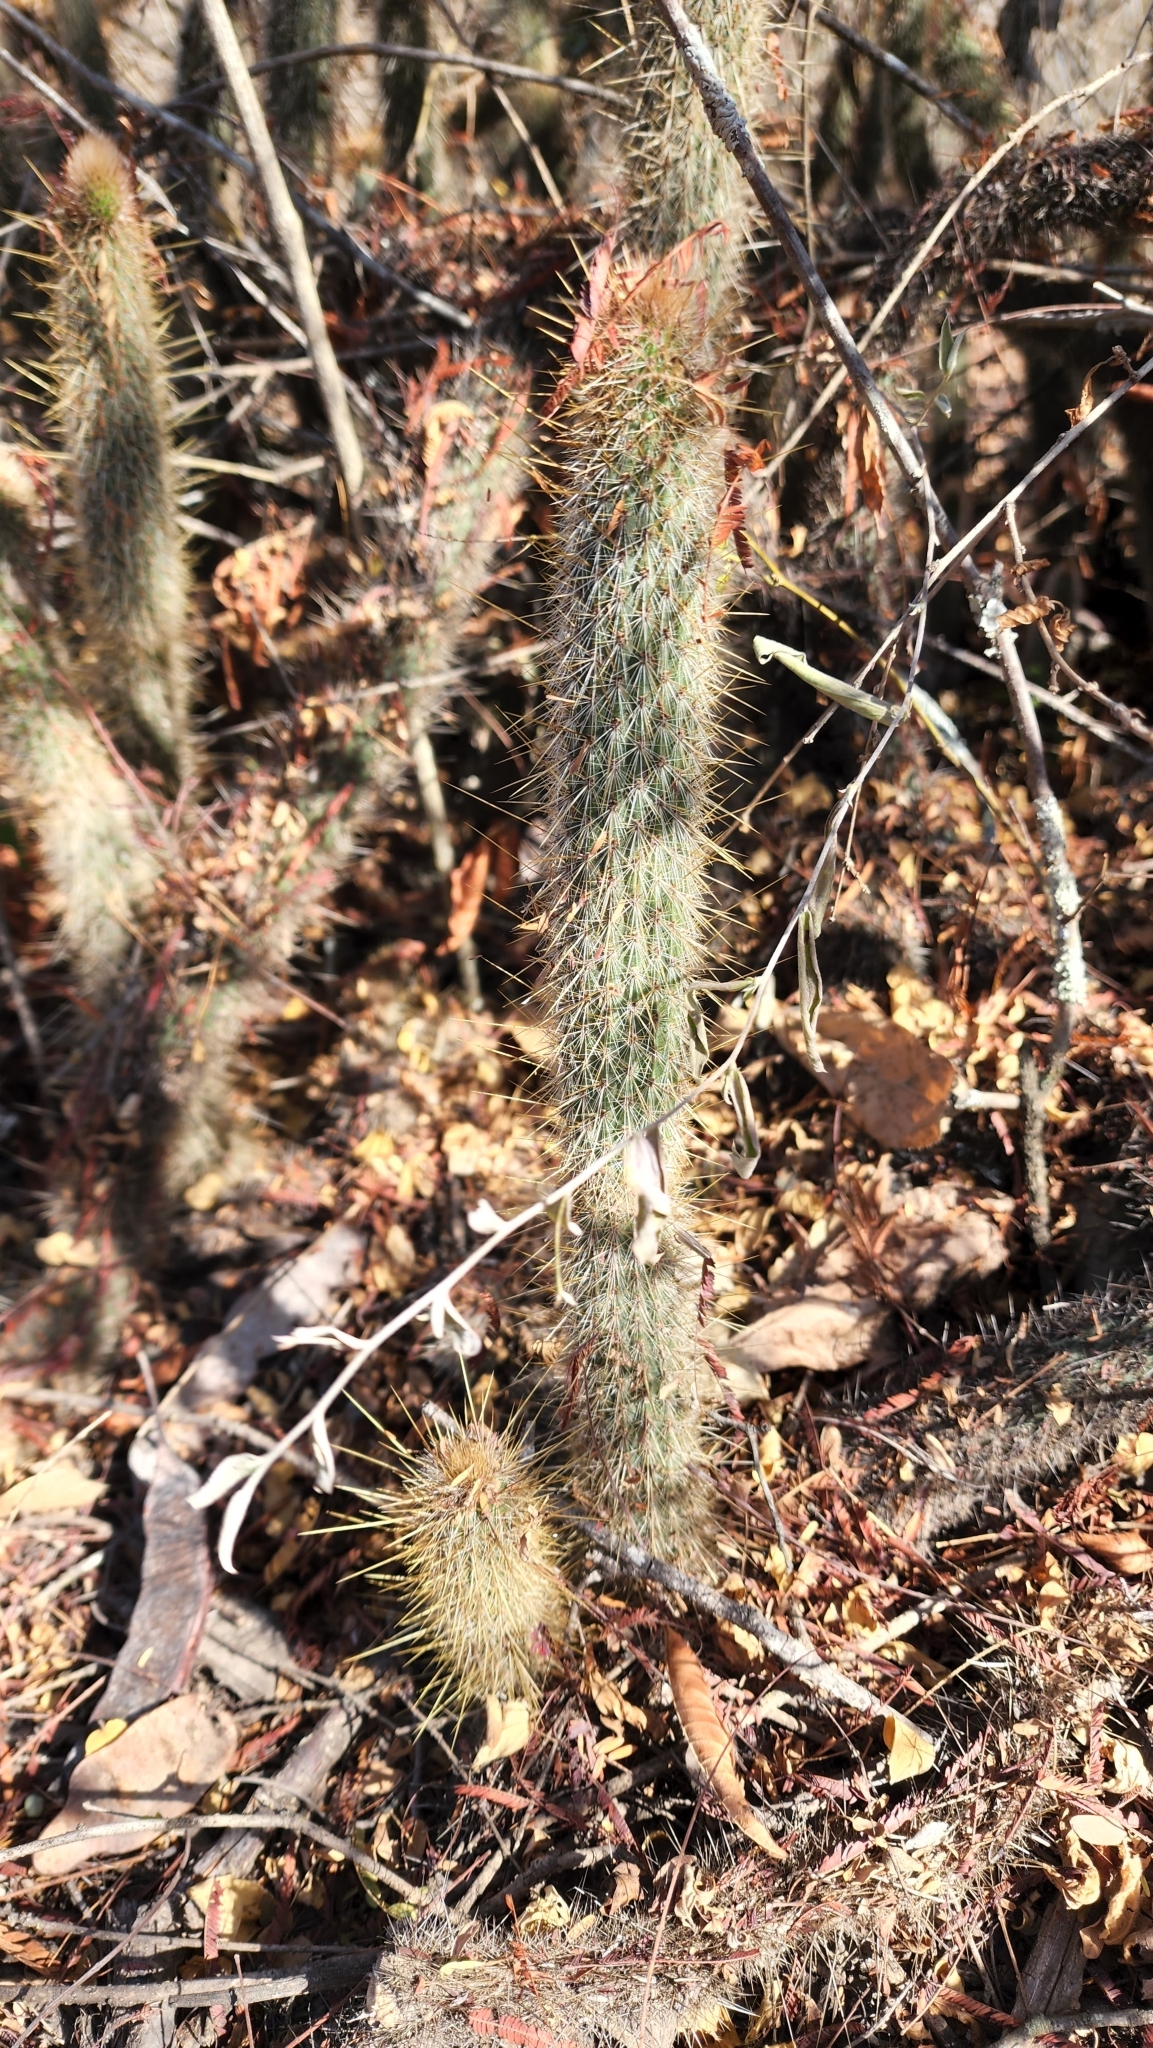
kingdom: Plantae
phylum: Tracheophyta
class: Magnoliopsida
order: Caryophyllales
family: Cactaceae
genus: Cleistocactus
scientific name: Cleistocactus hyalacanthus
